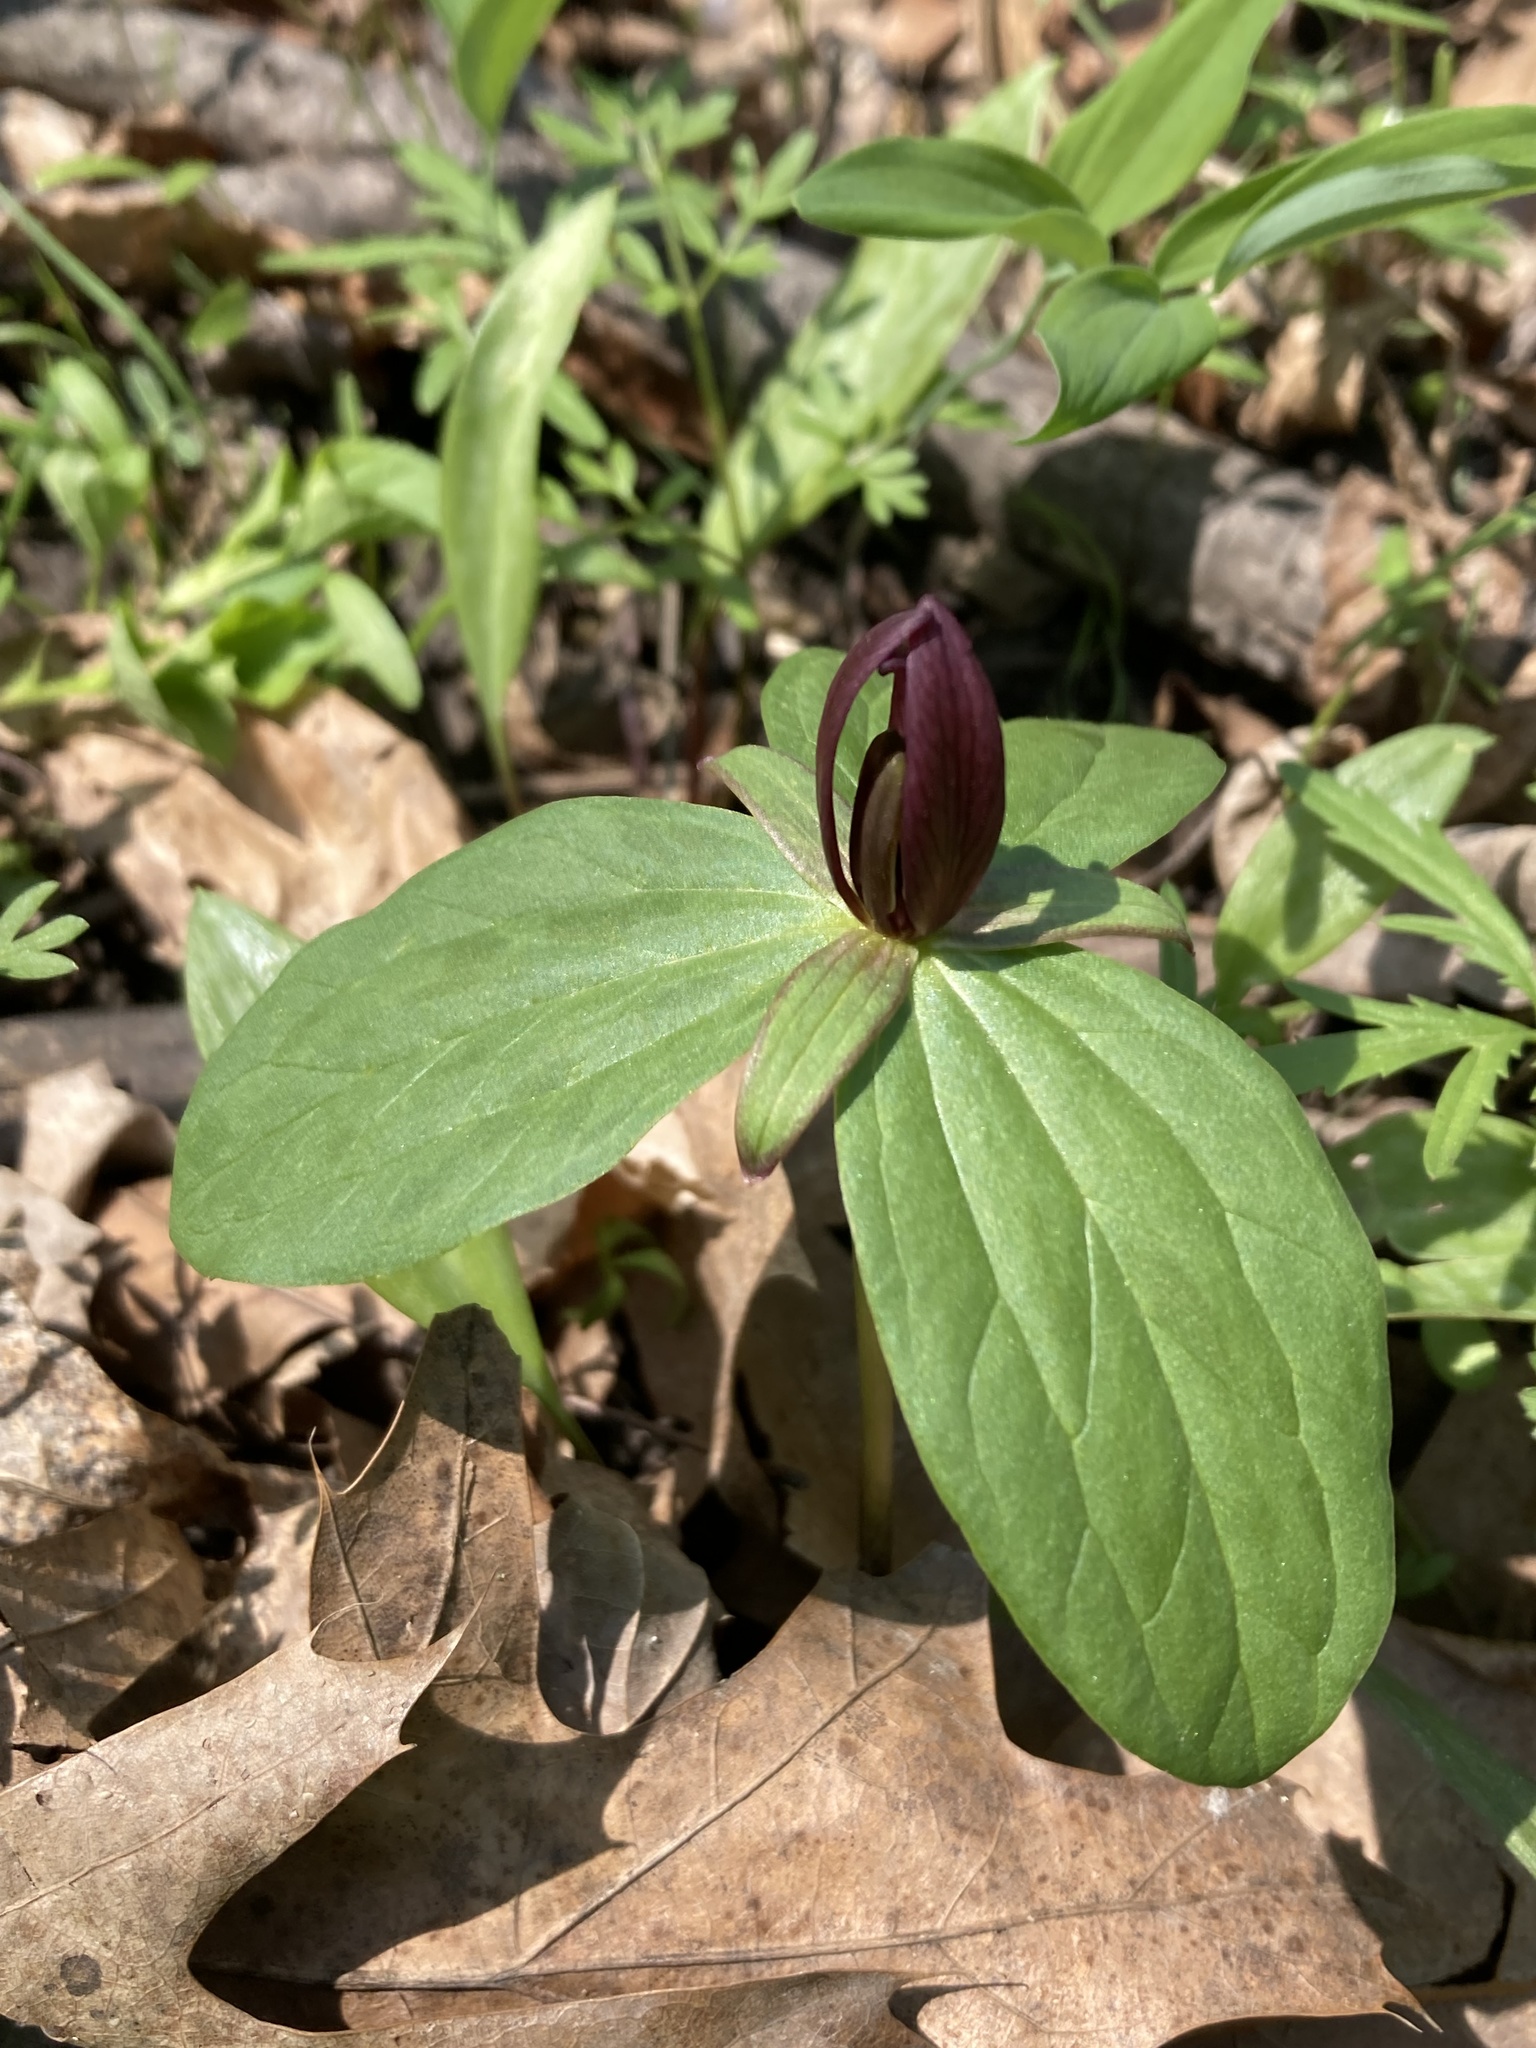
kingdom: Plantae
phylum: Tracheophyta
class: Liliopsida
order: Liliales
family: Melanthiaceae
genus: Trillium
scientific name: Trillium sessile
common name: Sessile trillium
